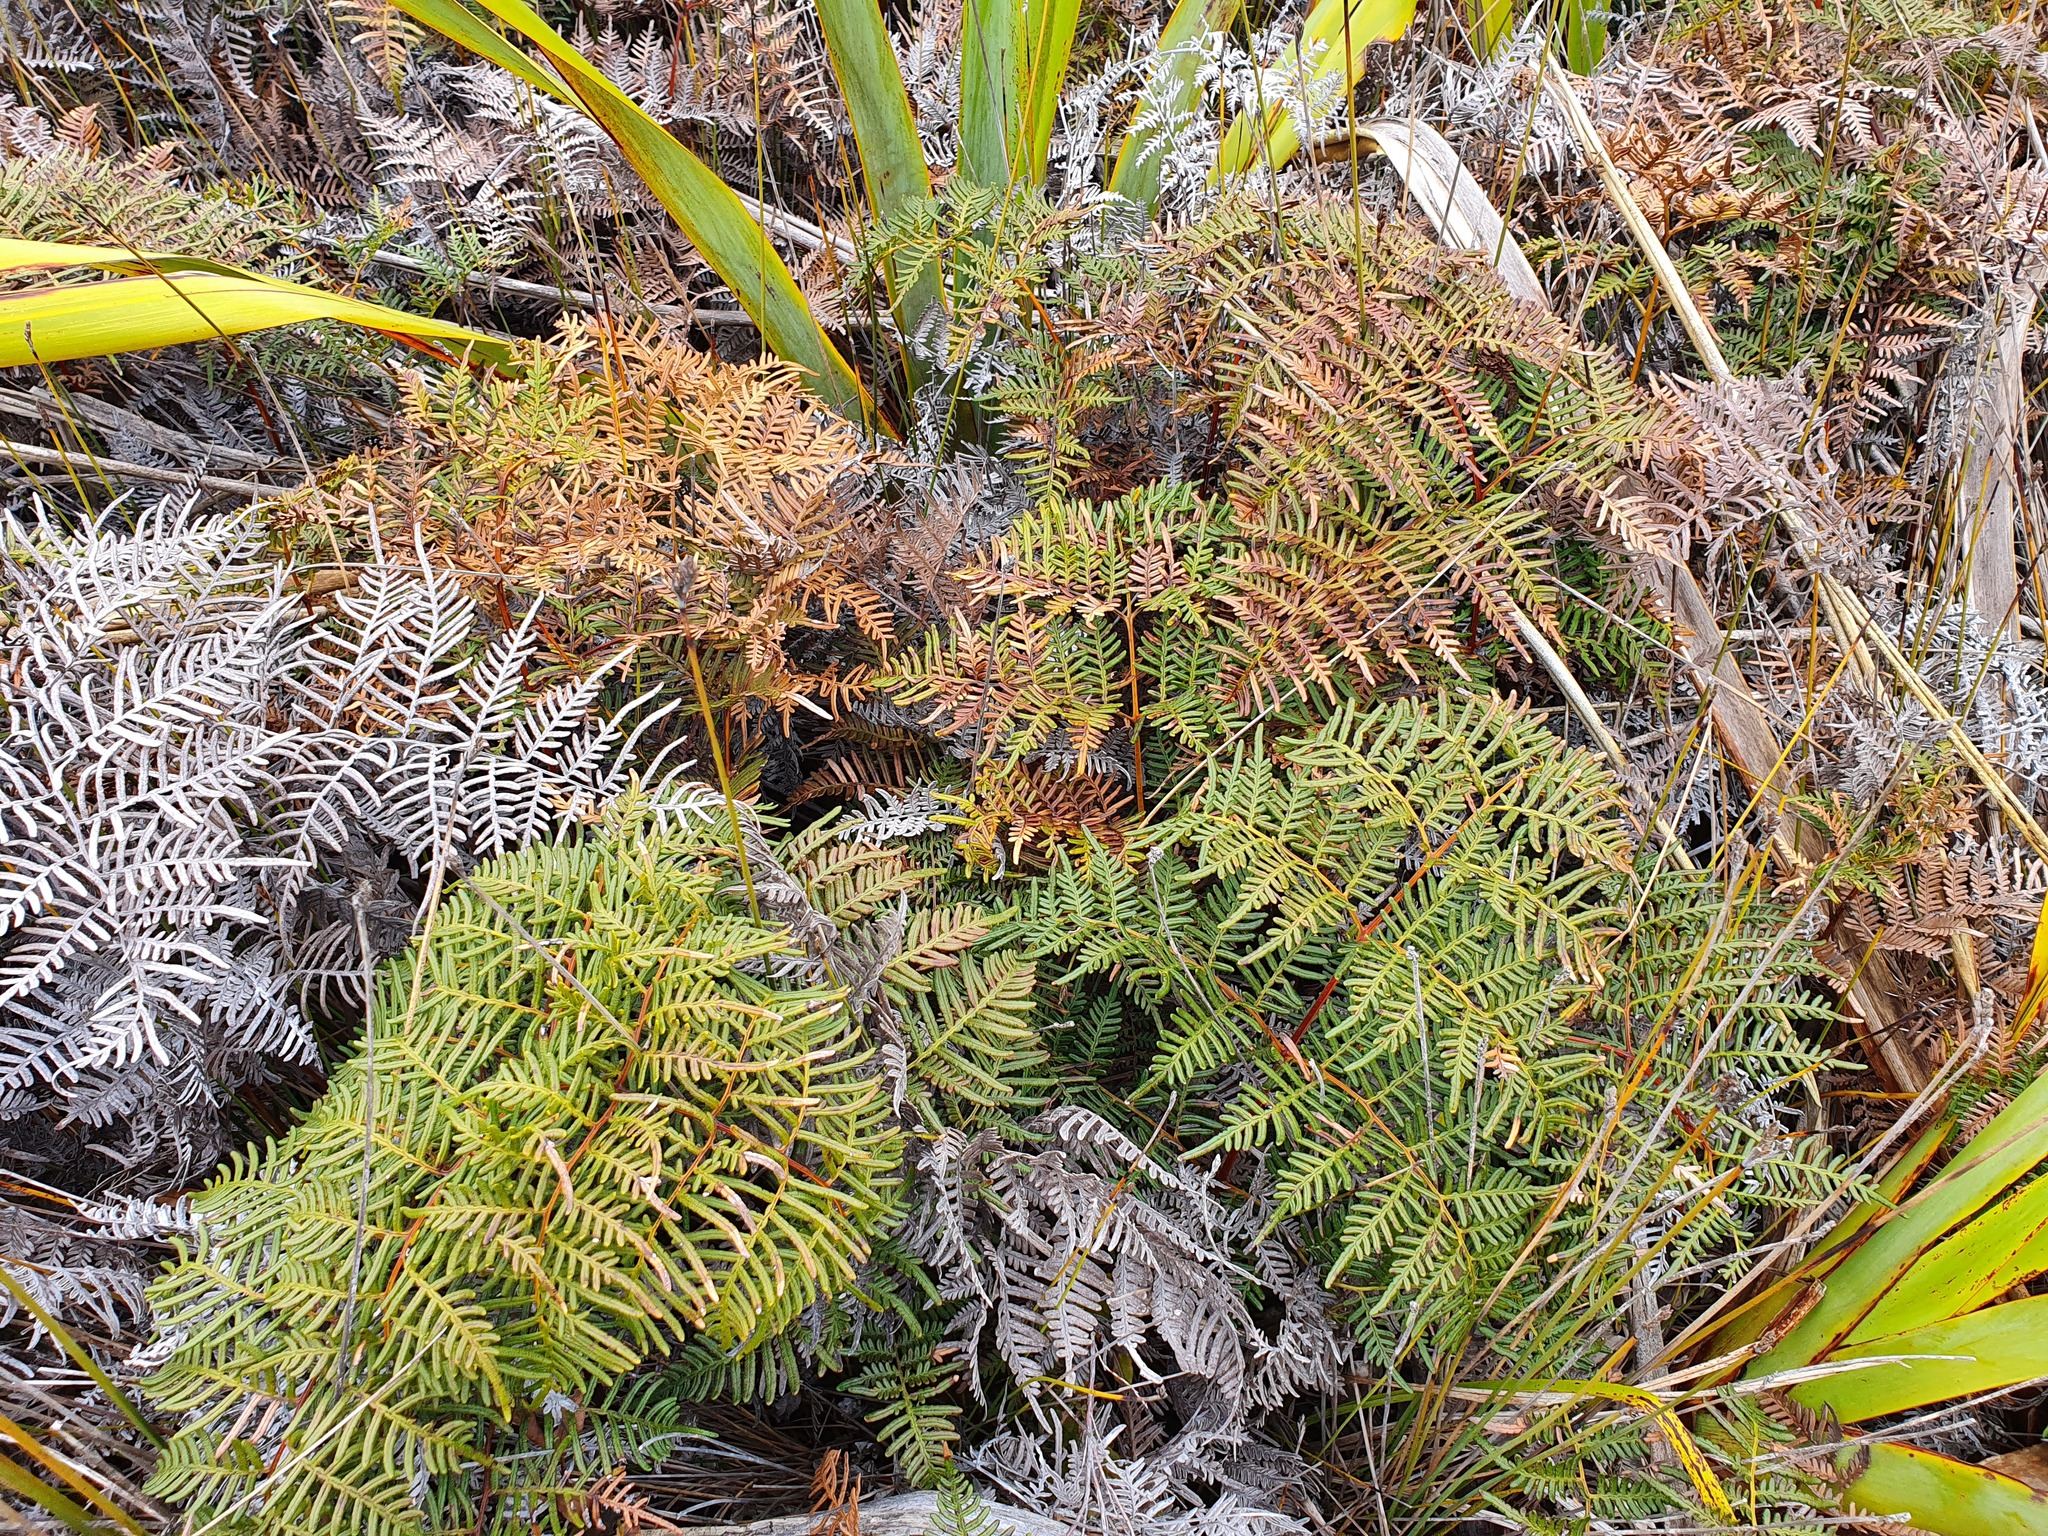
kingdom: Plantae
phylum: Tracheophyta
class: Polypodiopsida
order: Polypodiales
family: Dennstaedtiaceae
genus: Pteridium
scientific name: Pteridium esculentum
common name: Bracken fern
